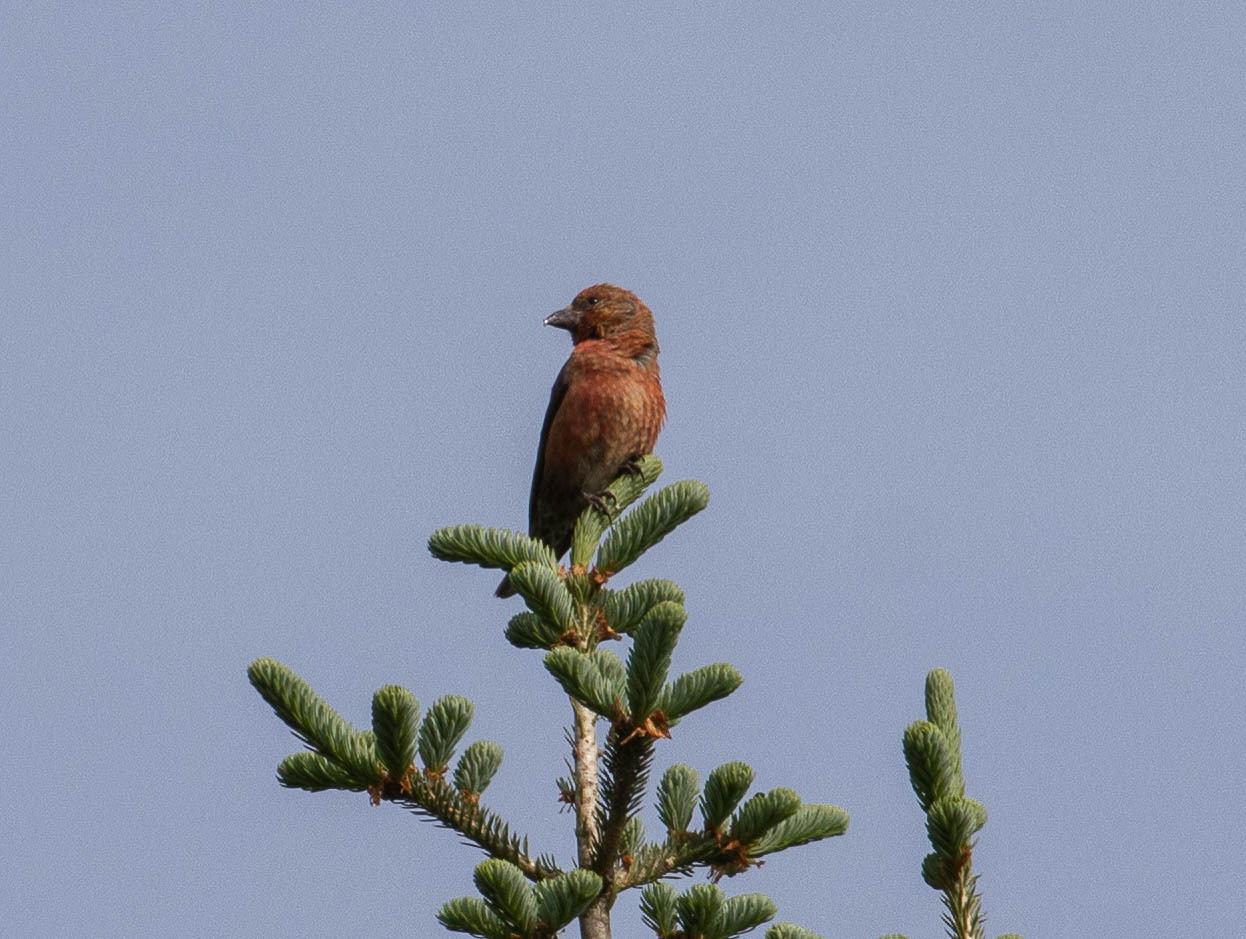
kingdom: Animalia
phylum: Chordata
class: Aves
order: Passeriformes
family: Fringillidae
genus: Loxia
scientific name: Loxia curvirostra
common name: Red crossbill
